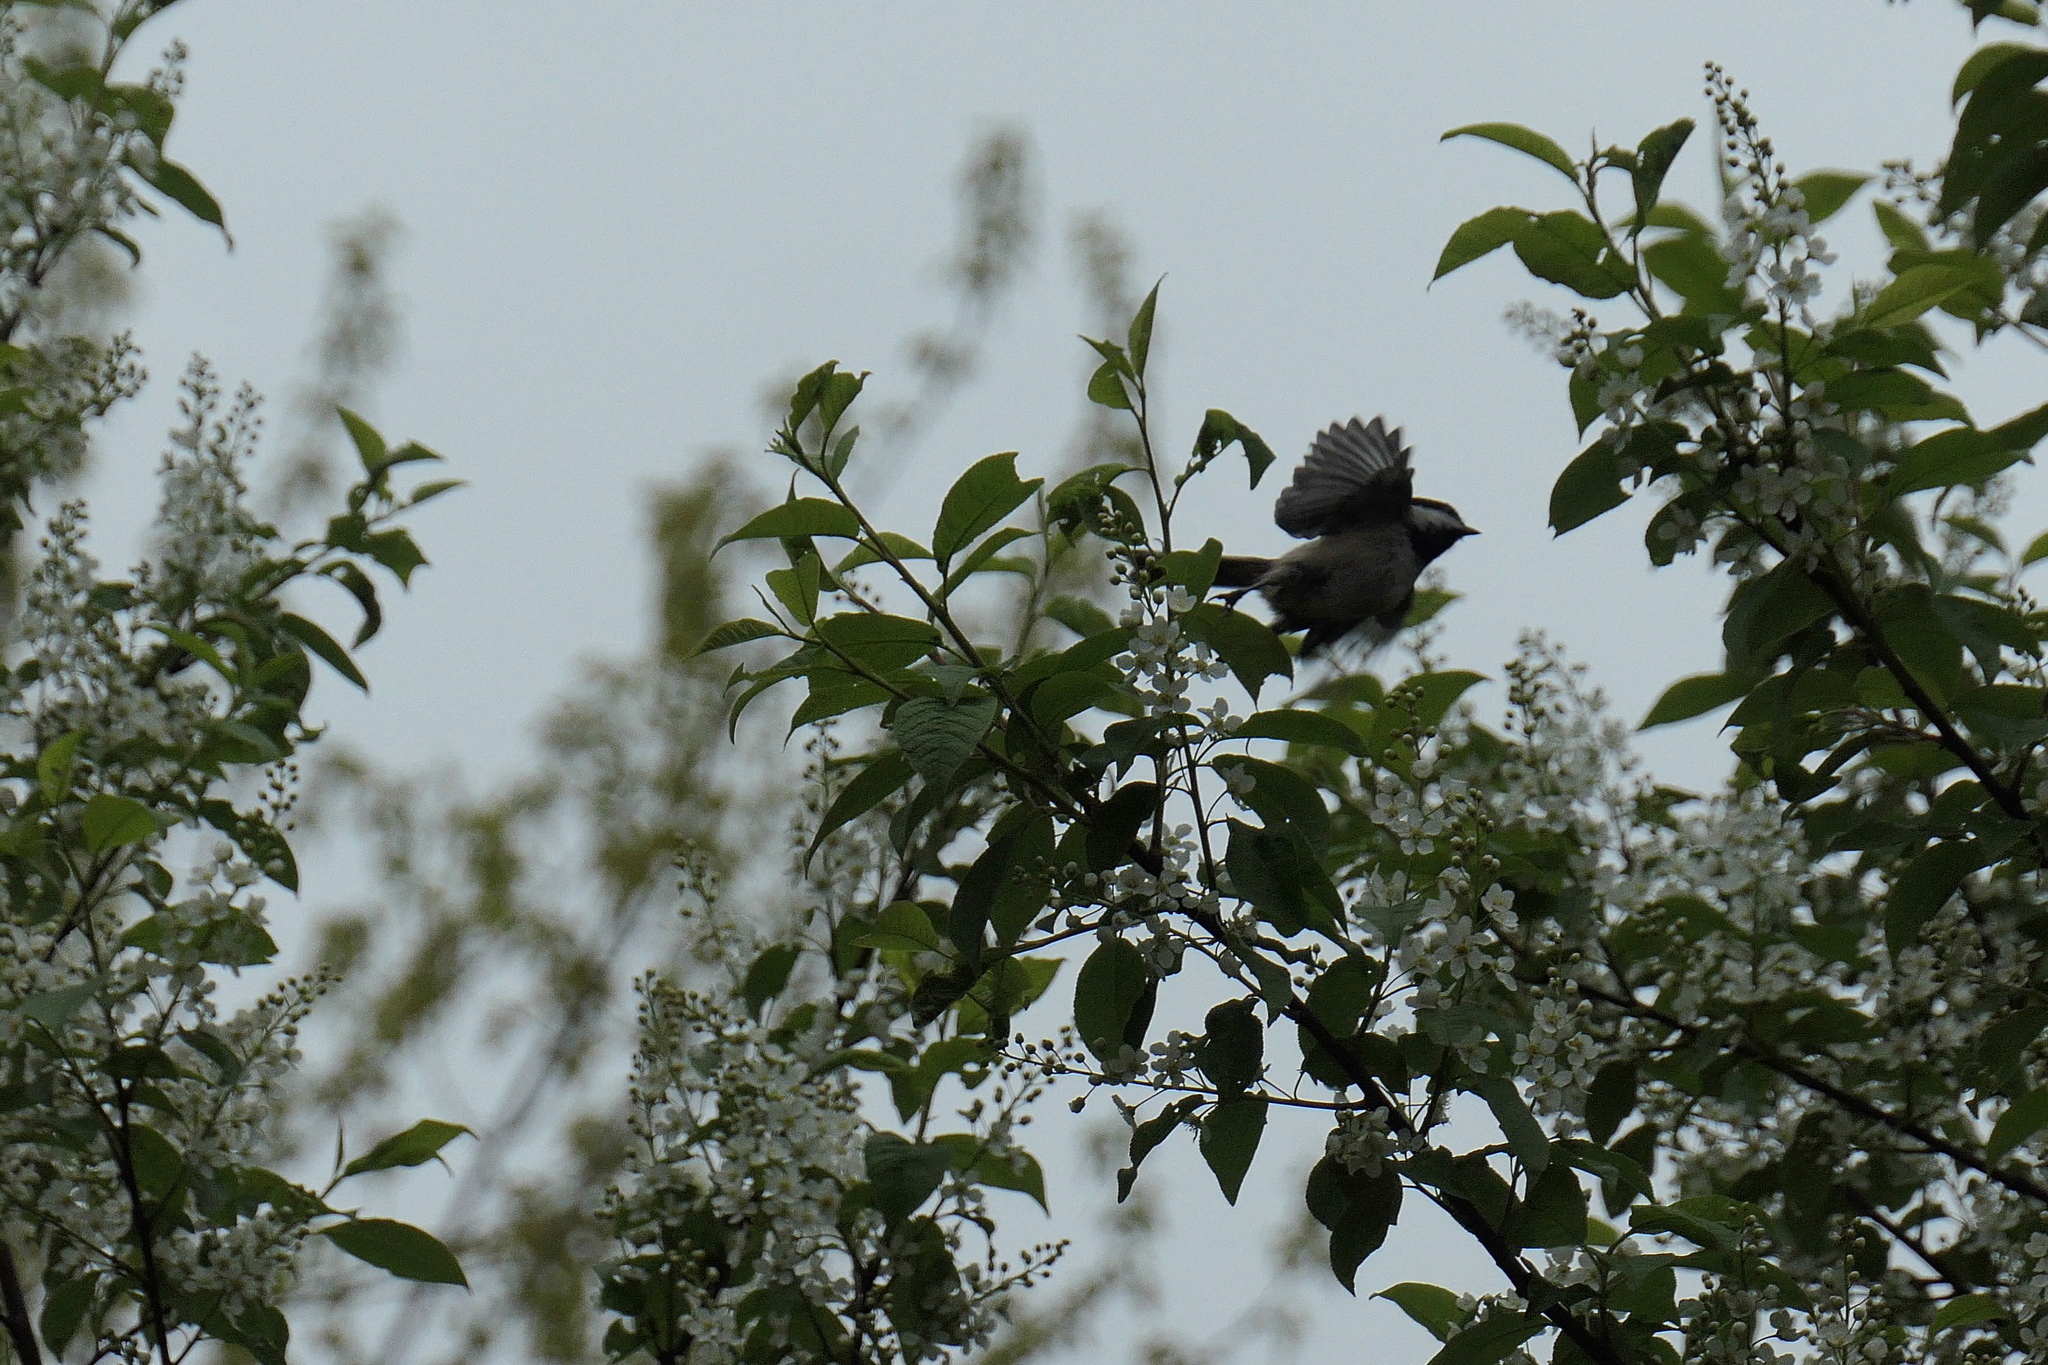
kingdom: Animalia
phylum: Chordata
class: Aves
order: Passeriformes
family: Paridae
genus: Poecile
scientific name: Poecile atricapillus
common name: Black-capped chickadee
